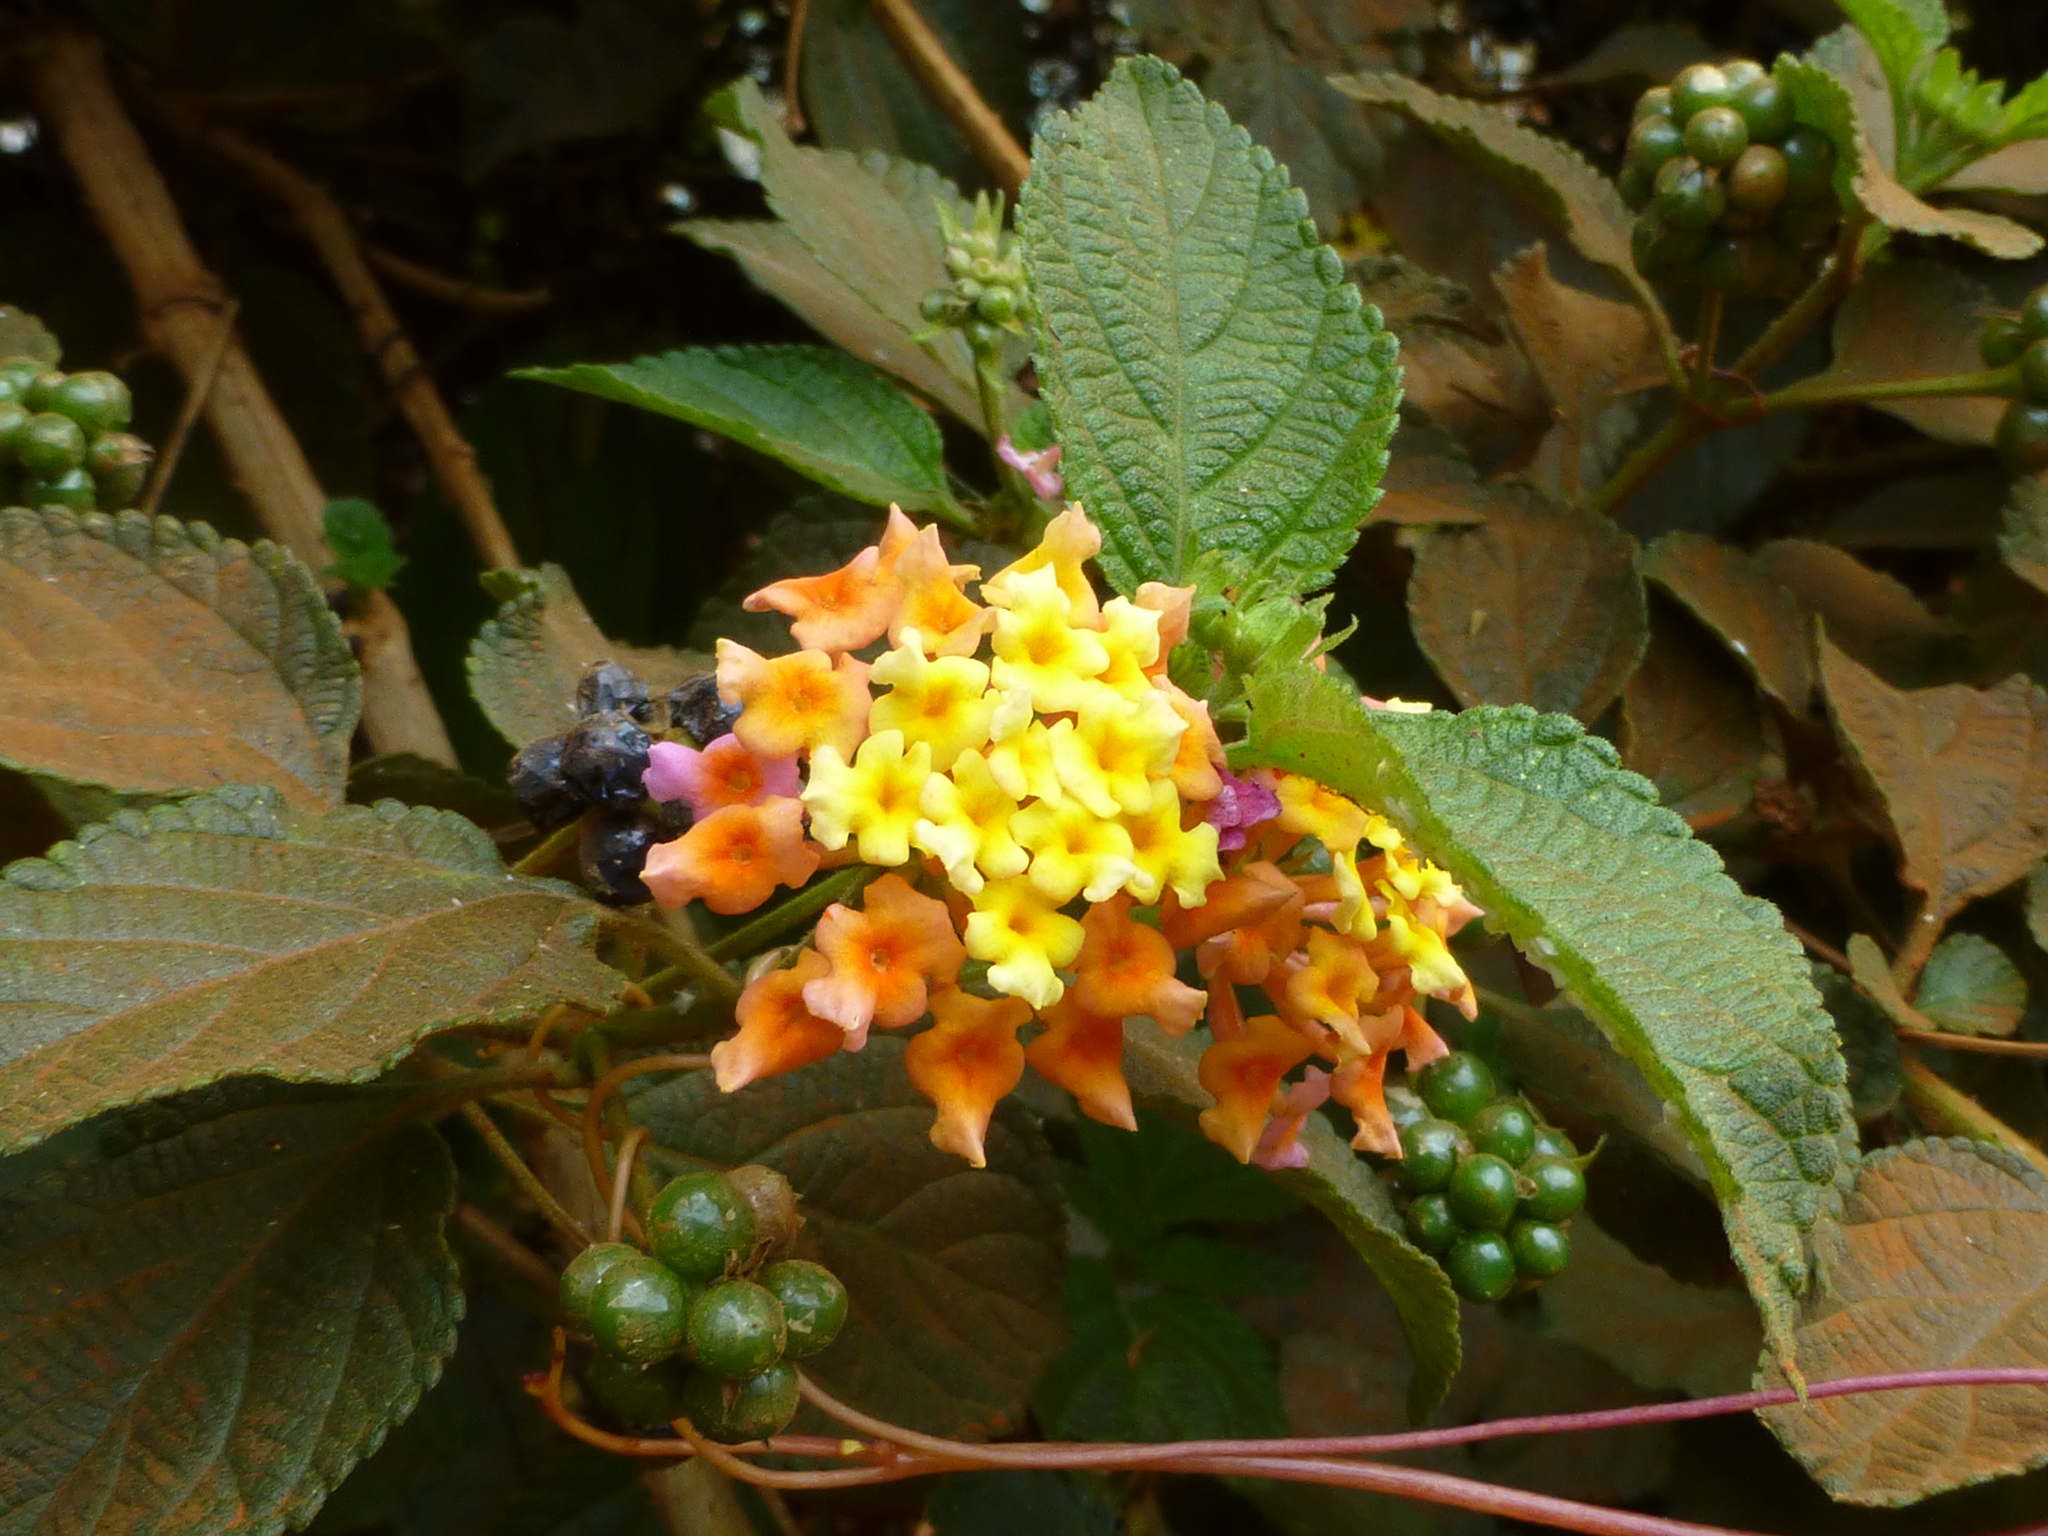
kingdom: Plantae
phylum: Tracheophyta
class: Magnoliopsida
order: Lamiales
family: Verbenaceae
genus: Lantana
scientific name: Lantana camara
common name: Lantana
